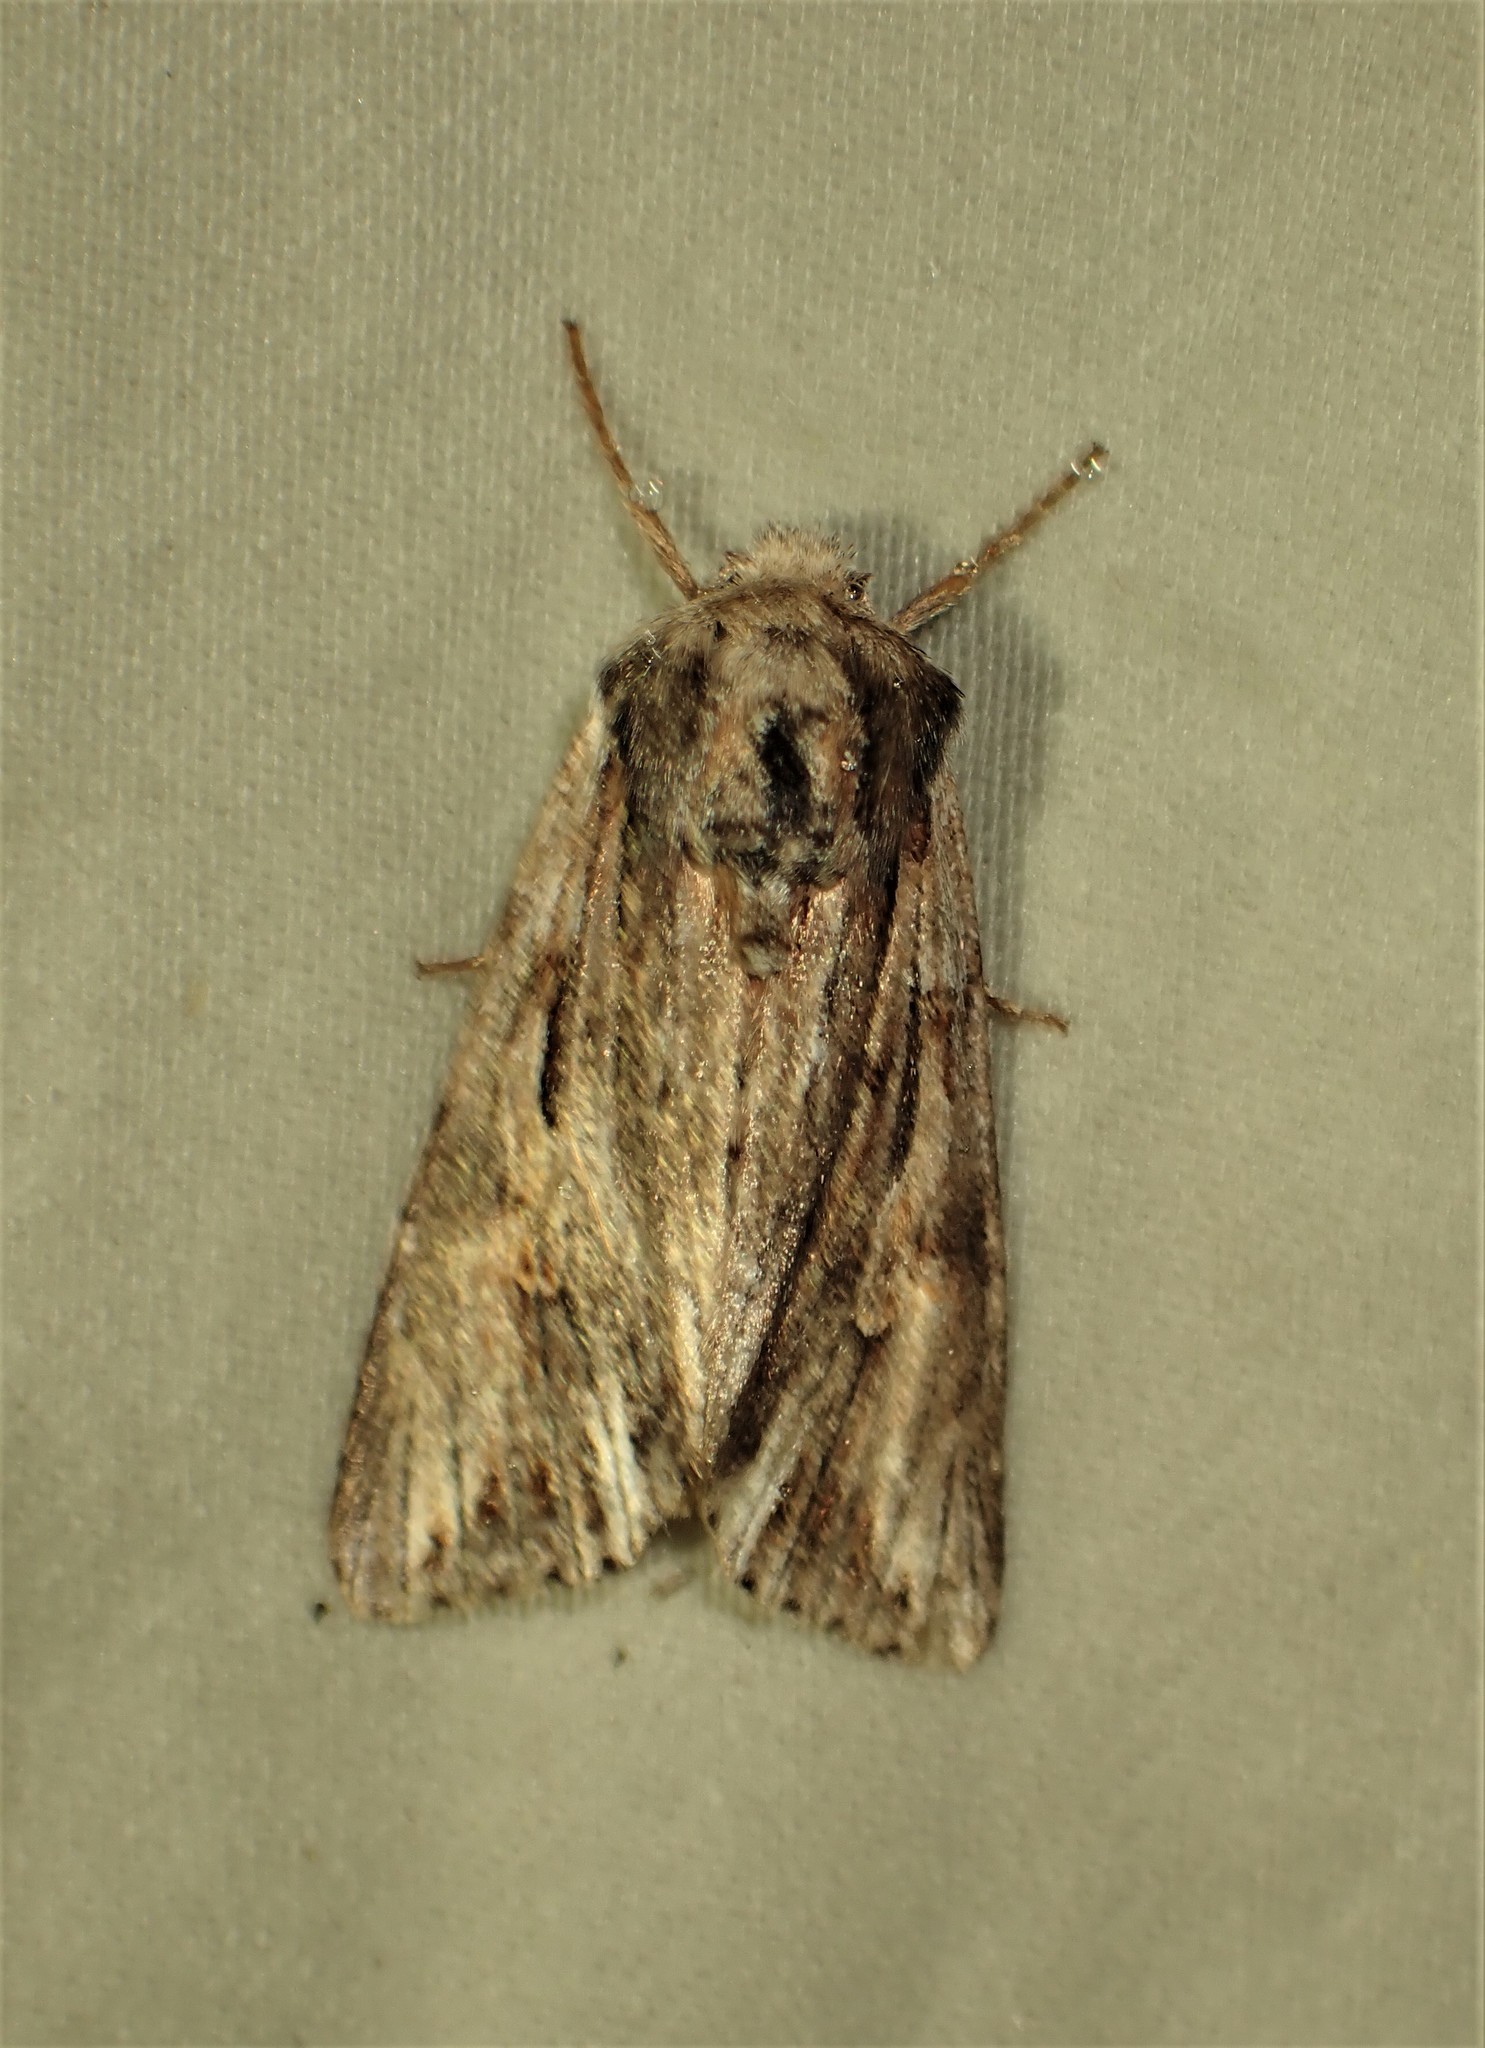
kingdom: Animalia
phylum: Arthropoda
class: Insecta
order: Lepidoptera
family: Noctuidae
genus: Achatia
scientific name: Achatia evicta
